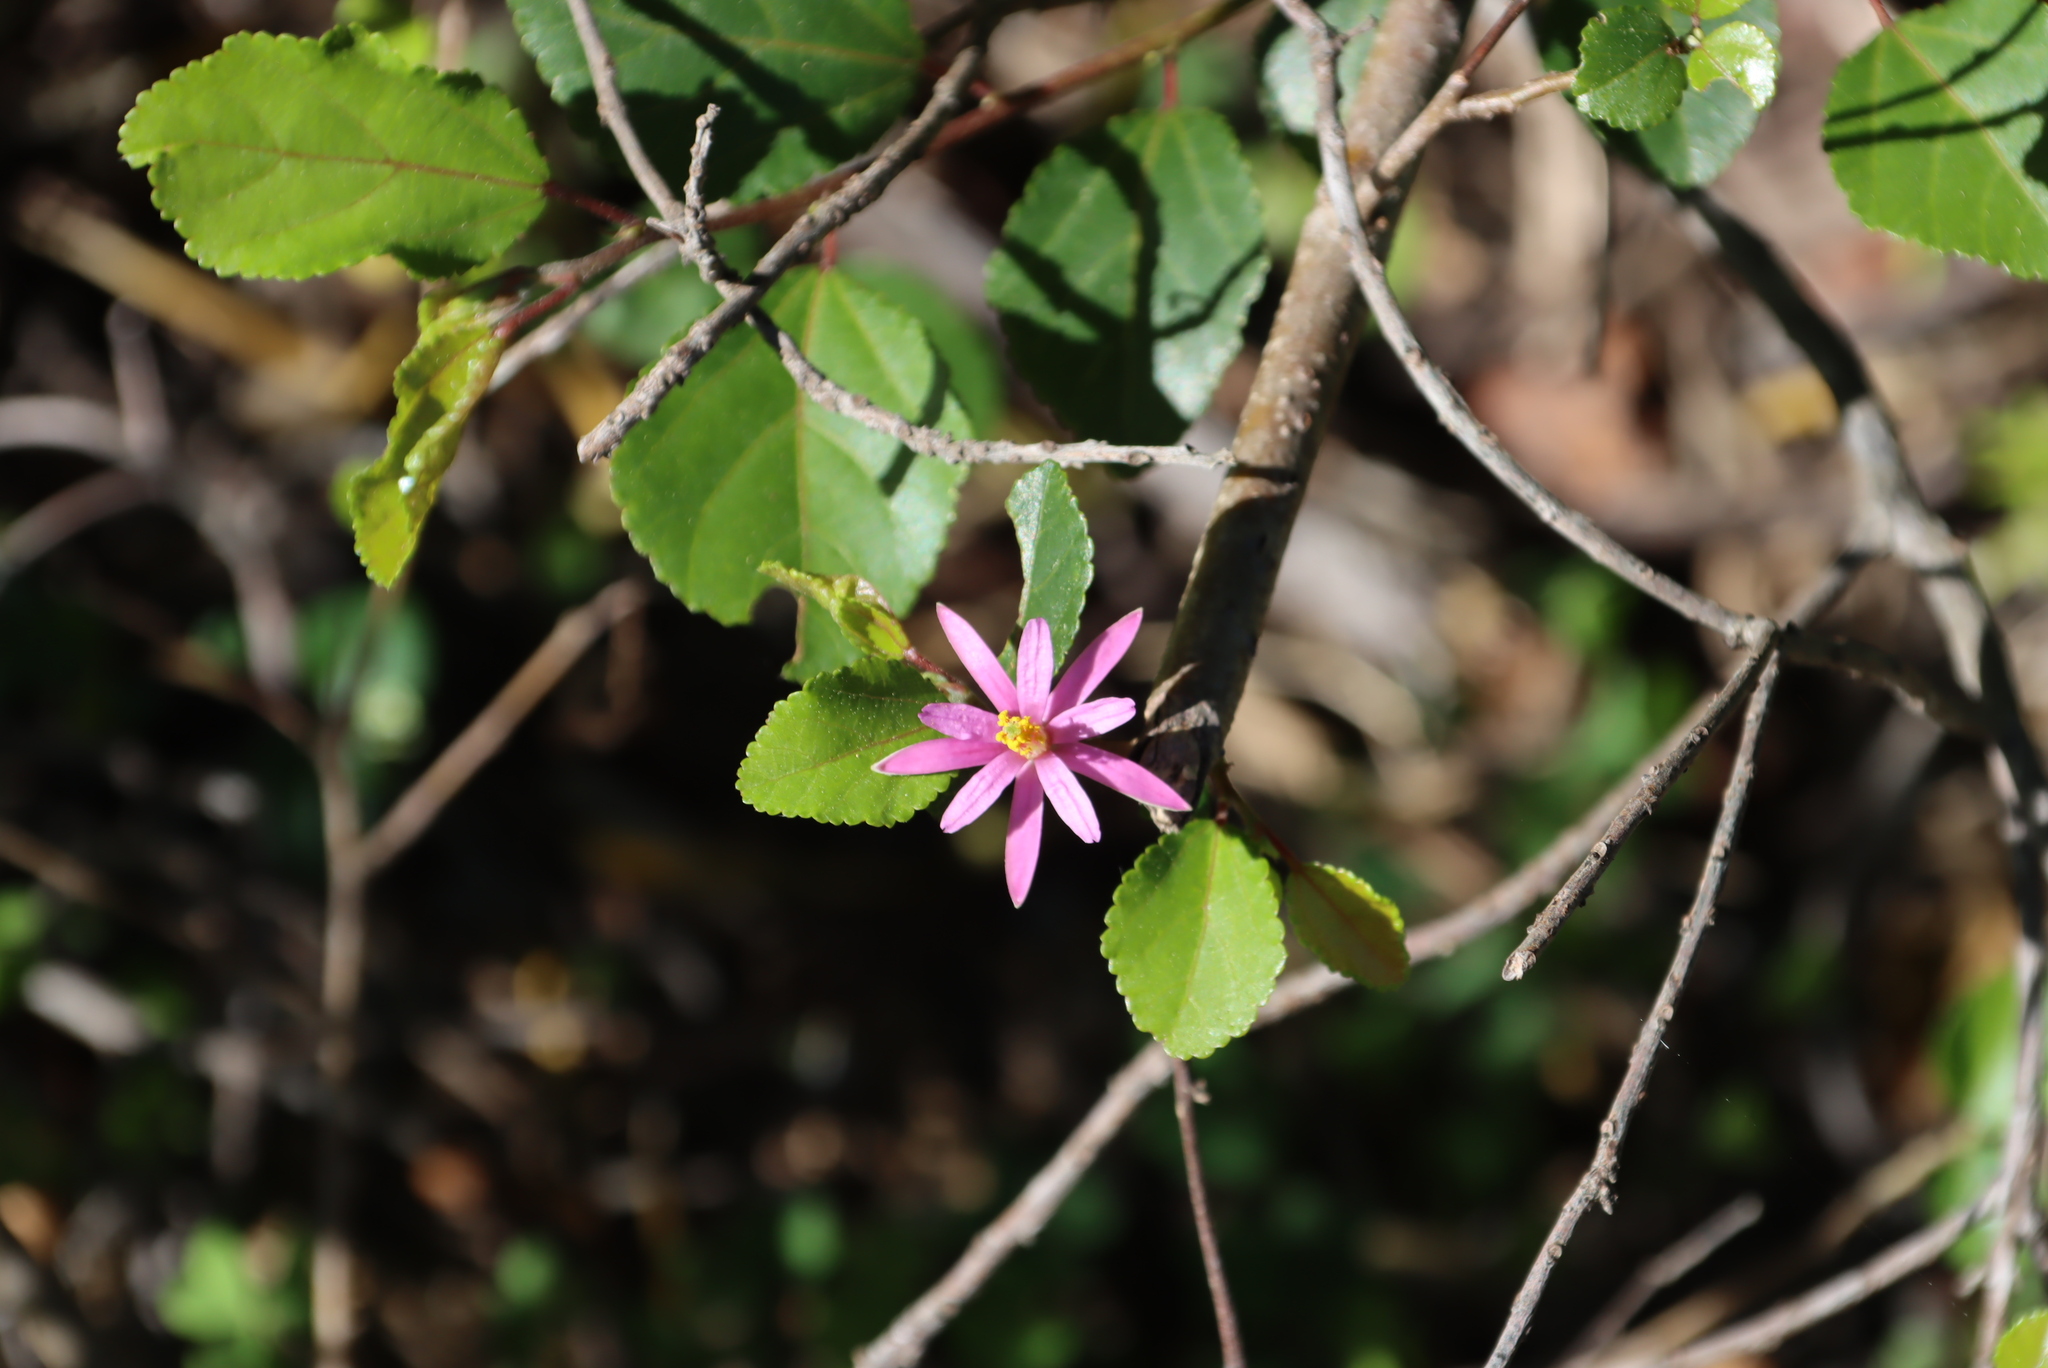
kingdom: Plantae
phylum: Tracheophyta
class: Magnoliopsida
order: Malvales
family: Malvaceae
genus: Grewia
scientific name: Grewia occidentalis
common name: Crossberry
